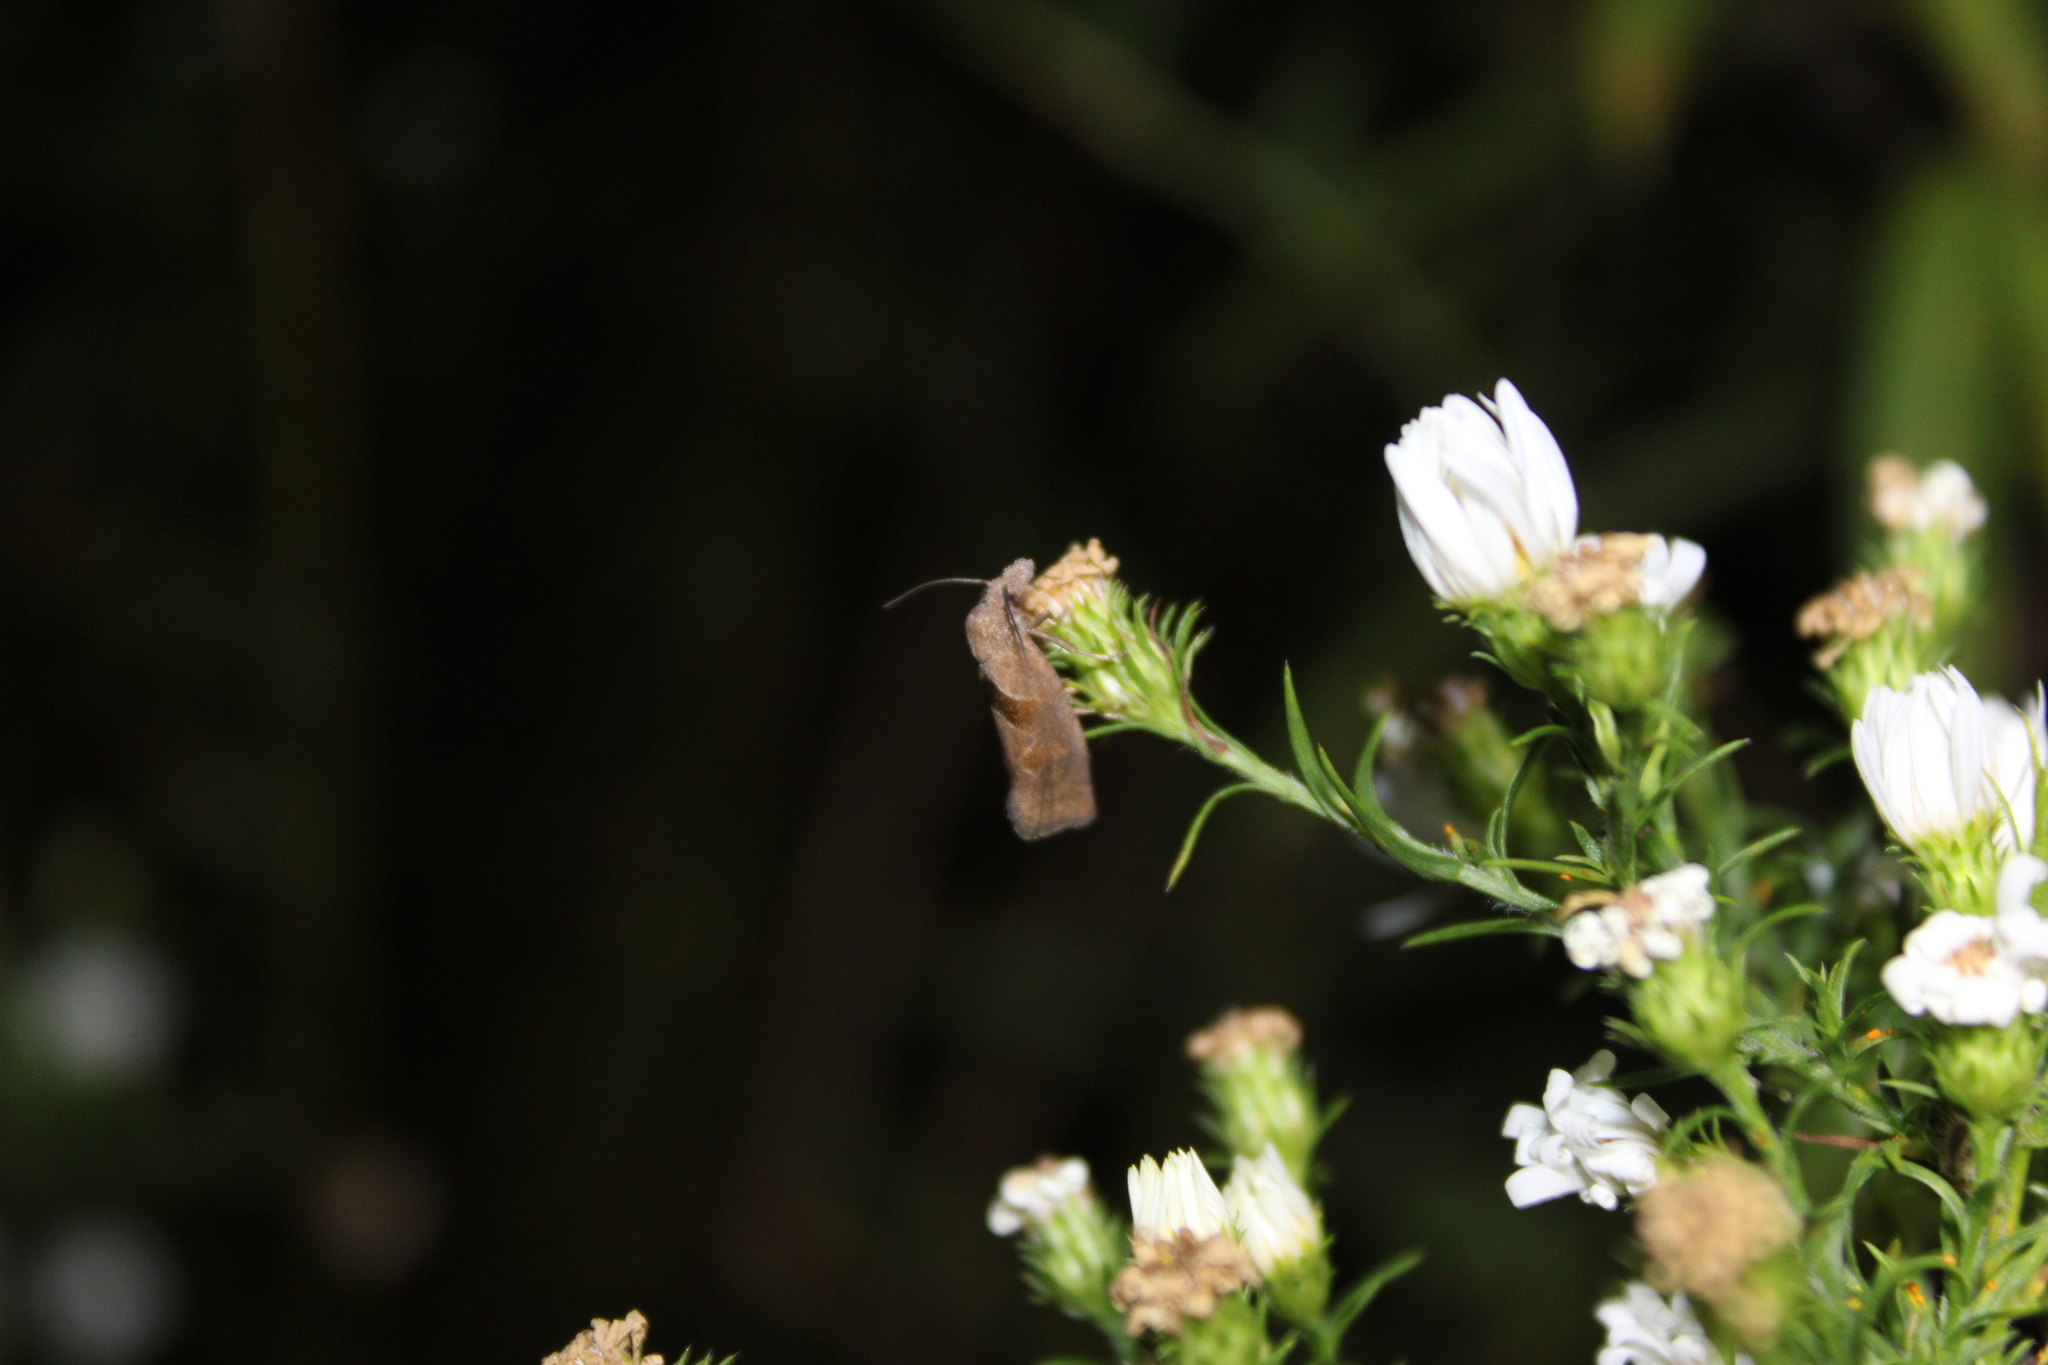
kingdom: Animalia
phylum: Arthropoda
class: Insecta
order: Lepidoptera
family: Tortricidae
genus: Pelochrista
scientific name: Pelochrista similiana
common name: Similar eucosma
